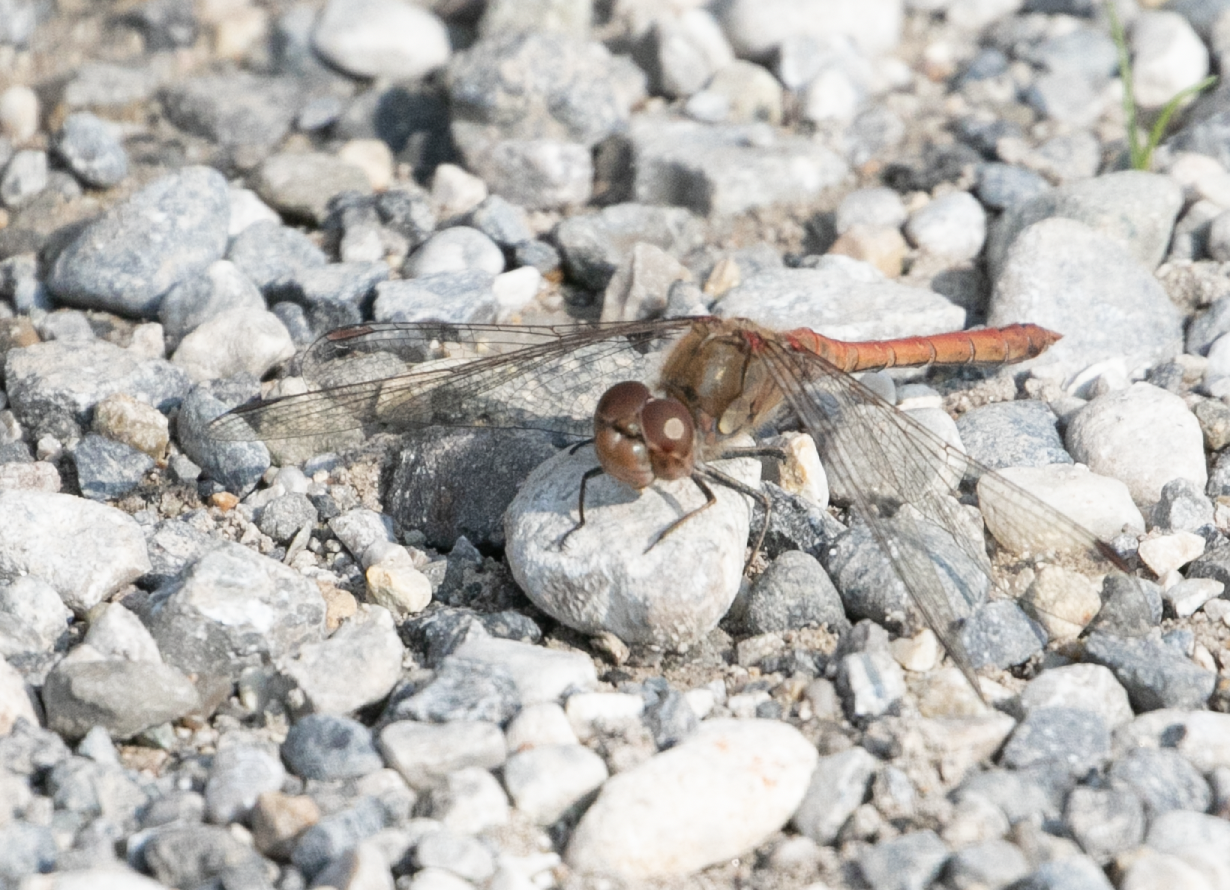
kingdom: Animalia
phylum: Arthropoda
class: Insecta
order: Odonata
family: Libellulidae
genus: Sympetrum
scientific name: Sympetrum striolatum
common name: Common darter
